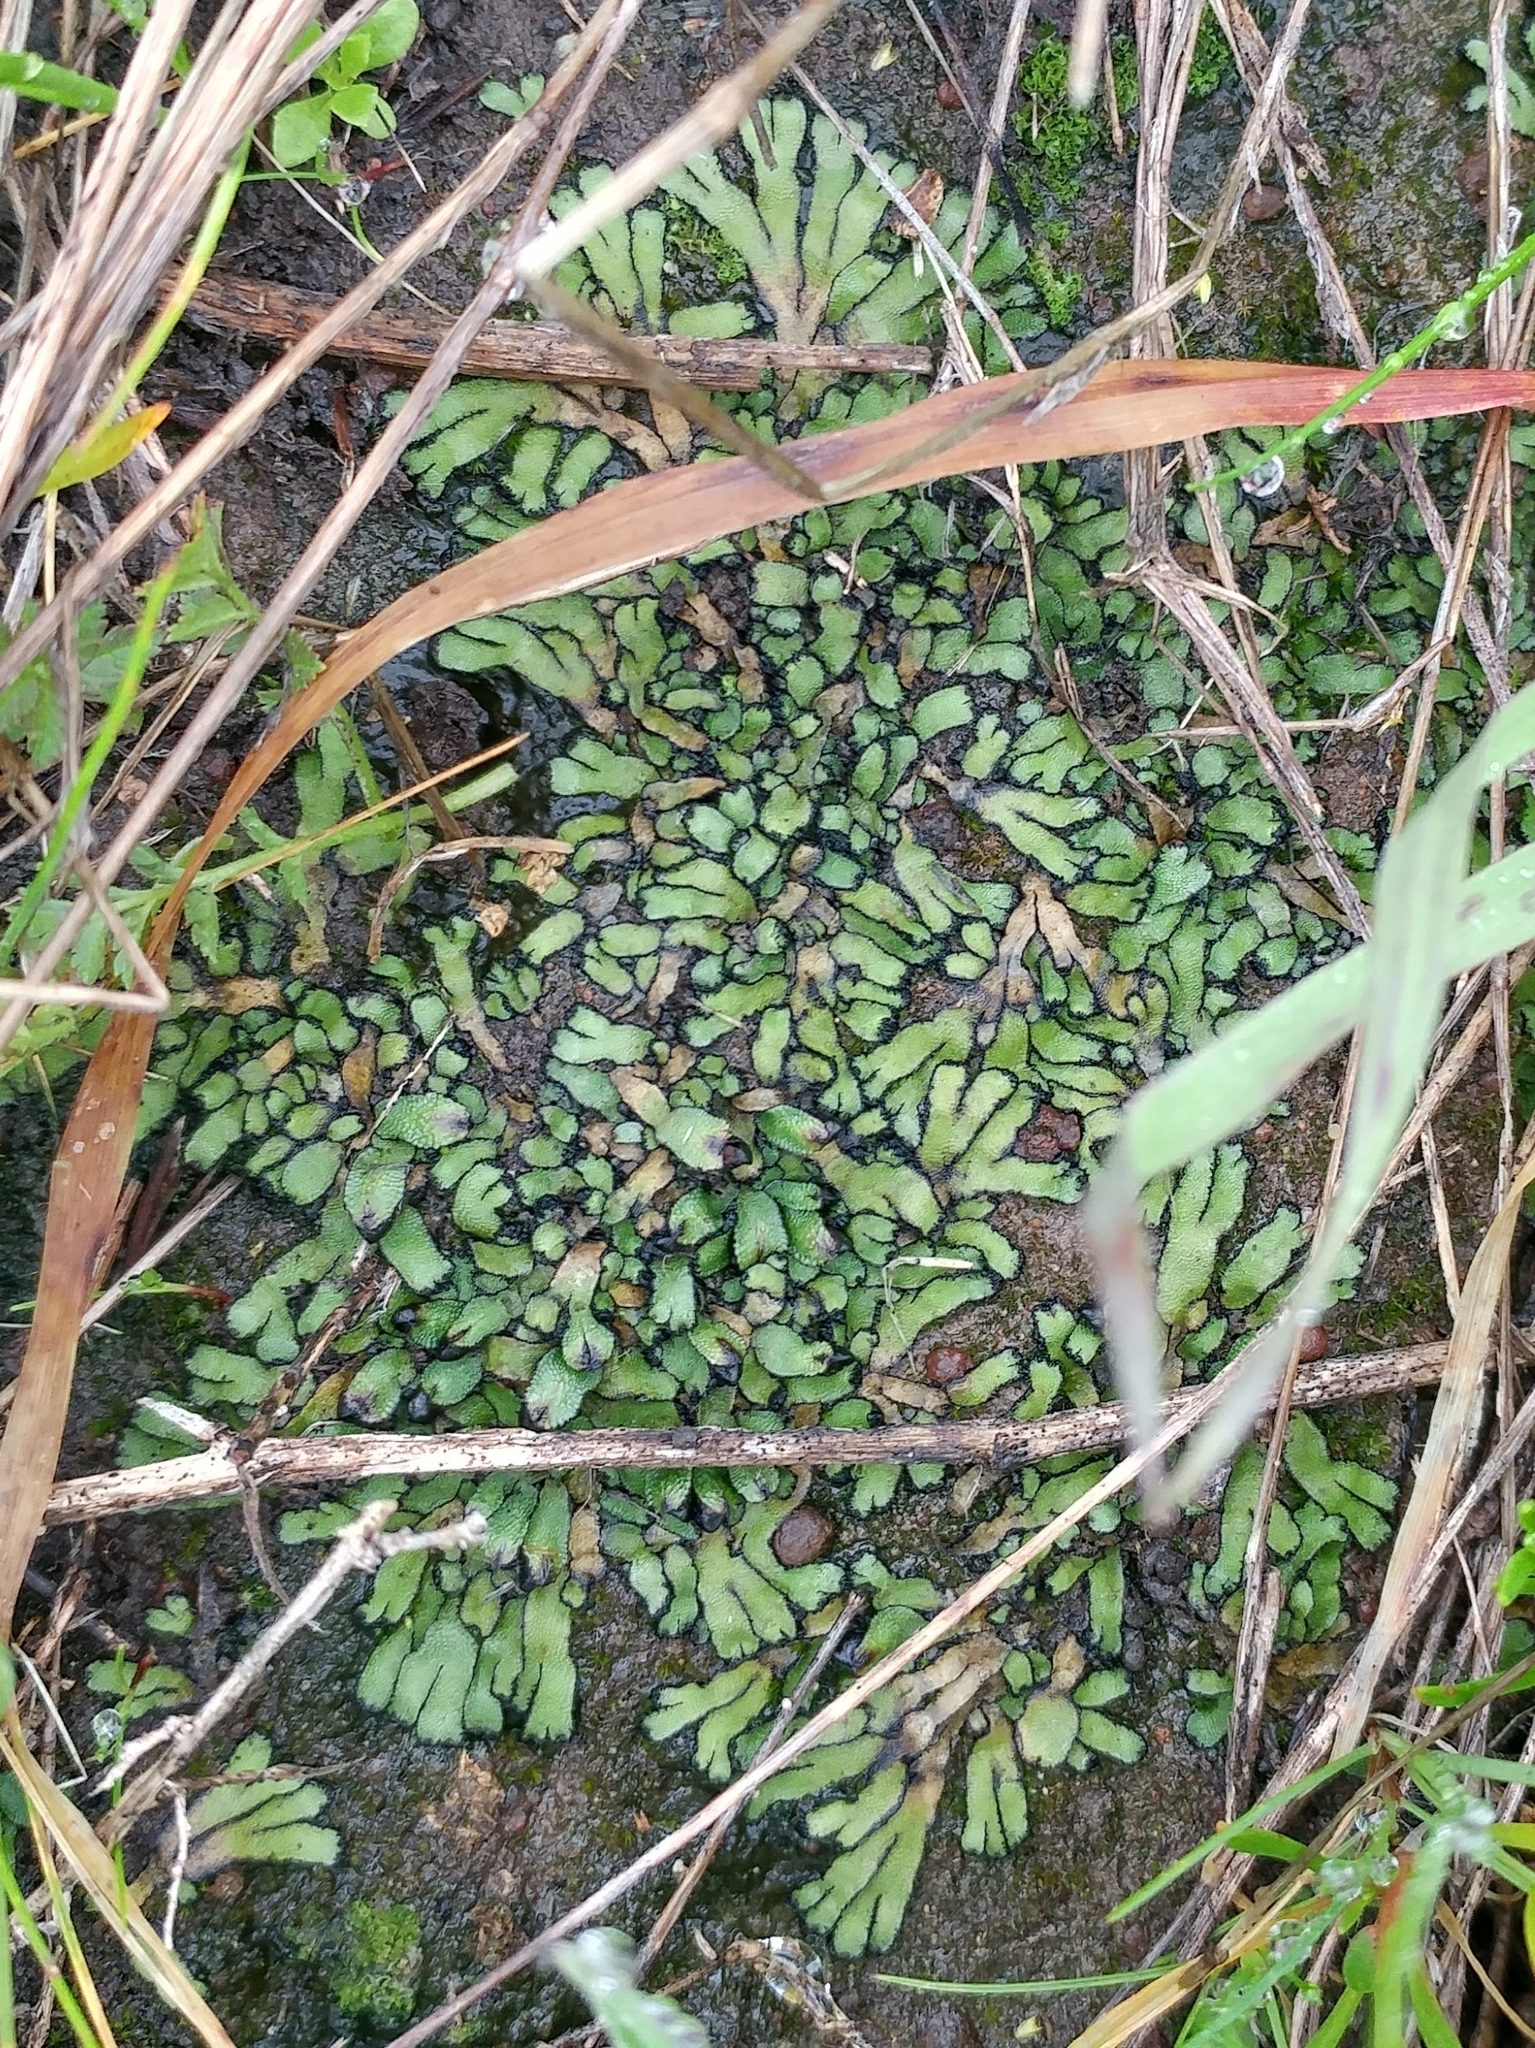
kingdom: Plantae
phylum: Marchantiophyta
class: Marchantiopsida
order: Marchantiales
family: Targioniaceae
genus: Targionia
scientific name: Targionia hypophylla
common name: Orobus-seed liverwort
